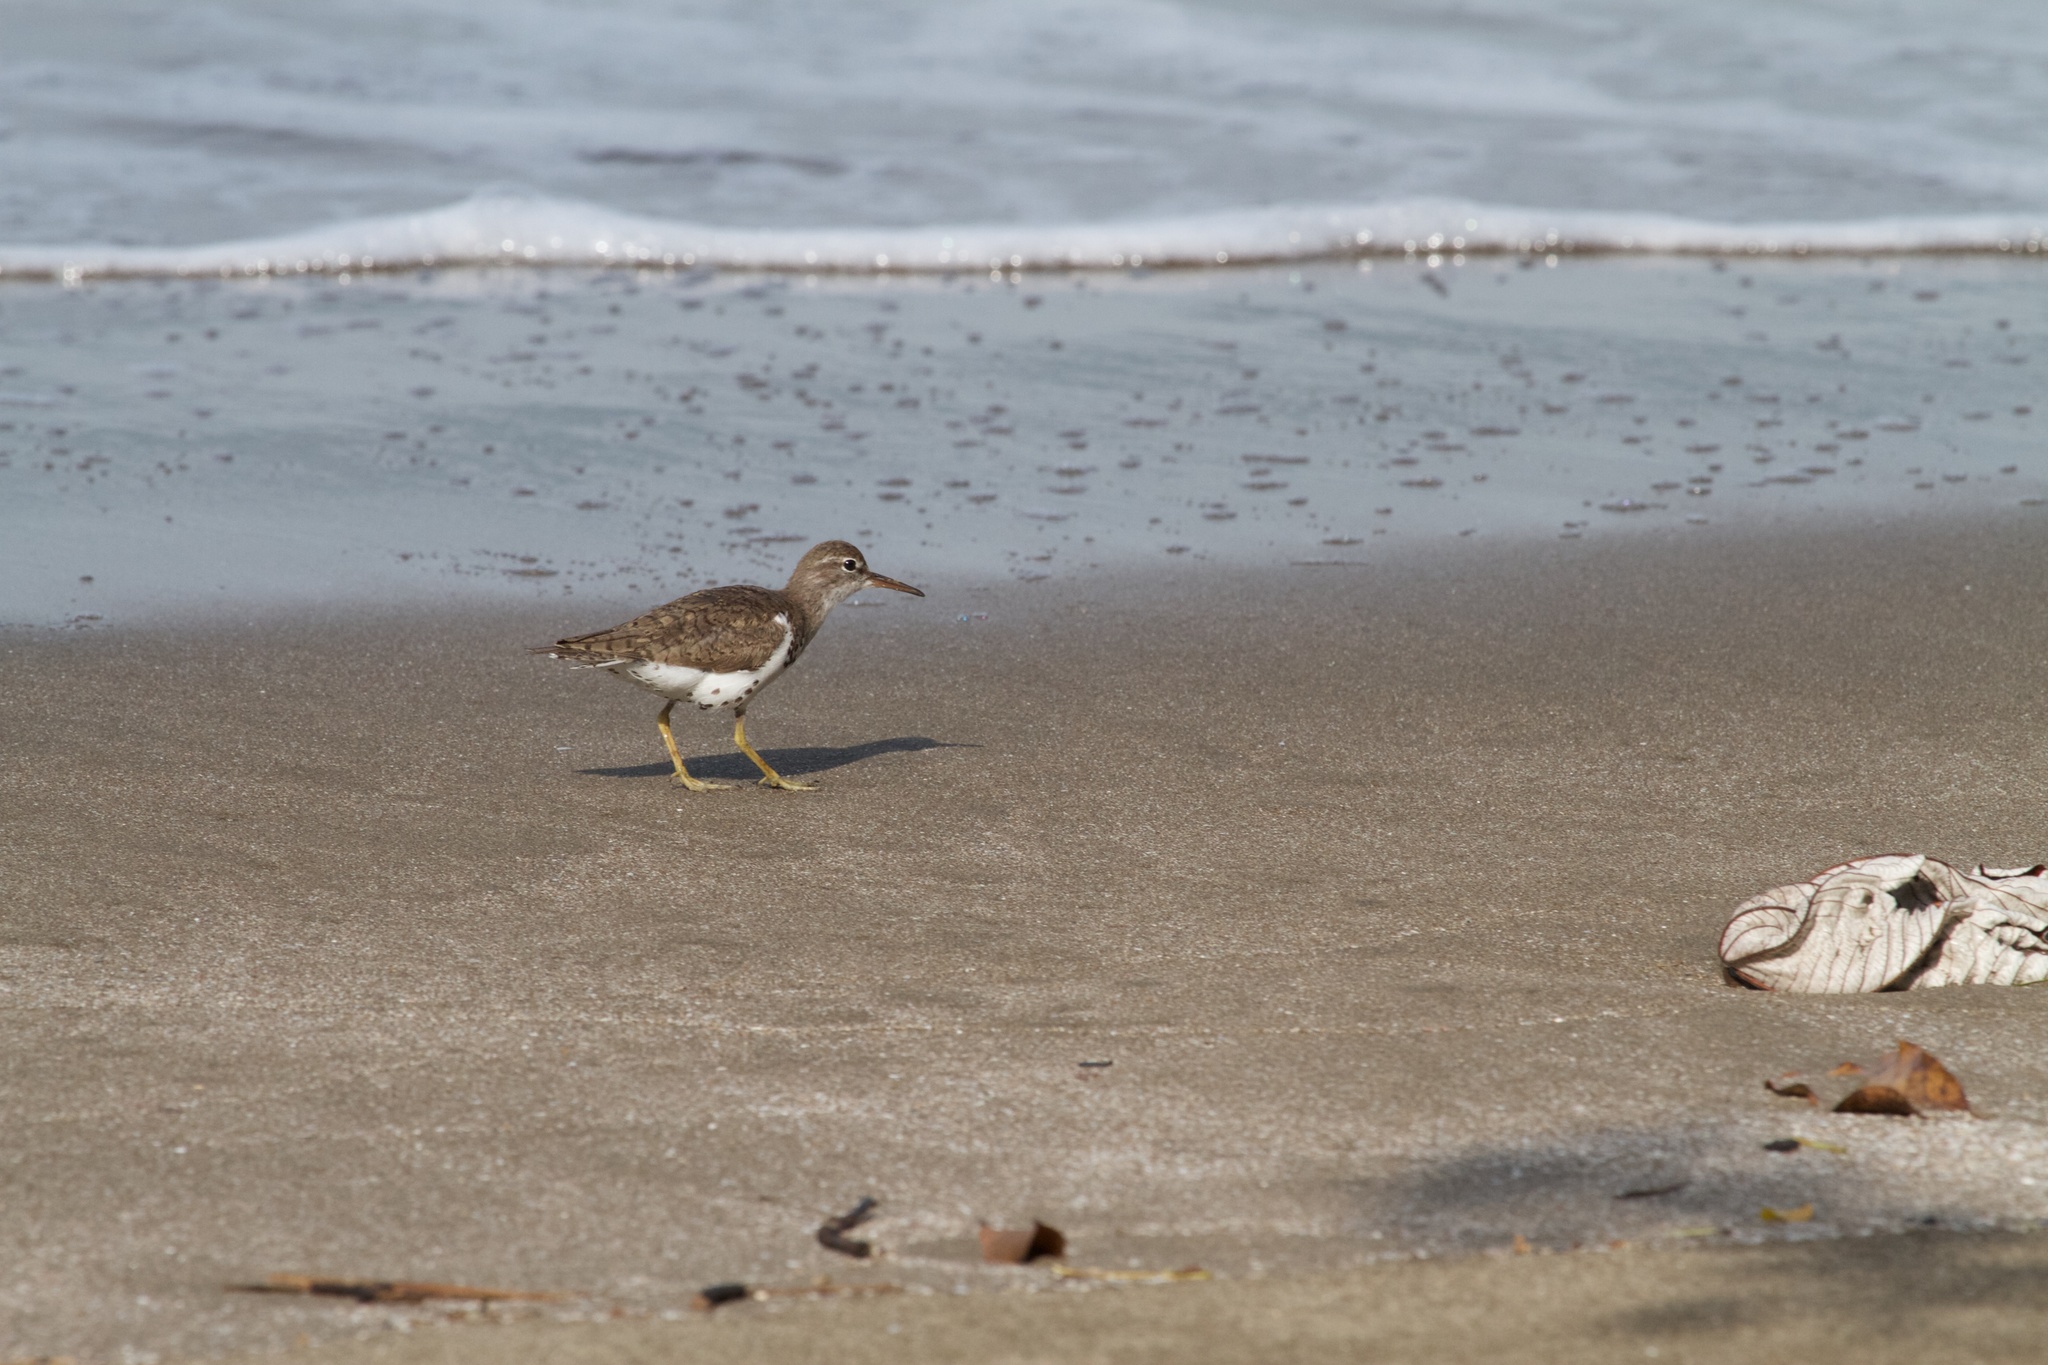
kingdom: Animalia
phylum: Chordata
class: Aves
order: Charadriiformes
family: Scolopacidae
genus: Actitis
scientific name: Actitis macularius
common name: Spotted sandpiper
